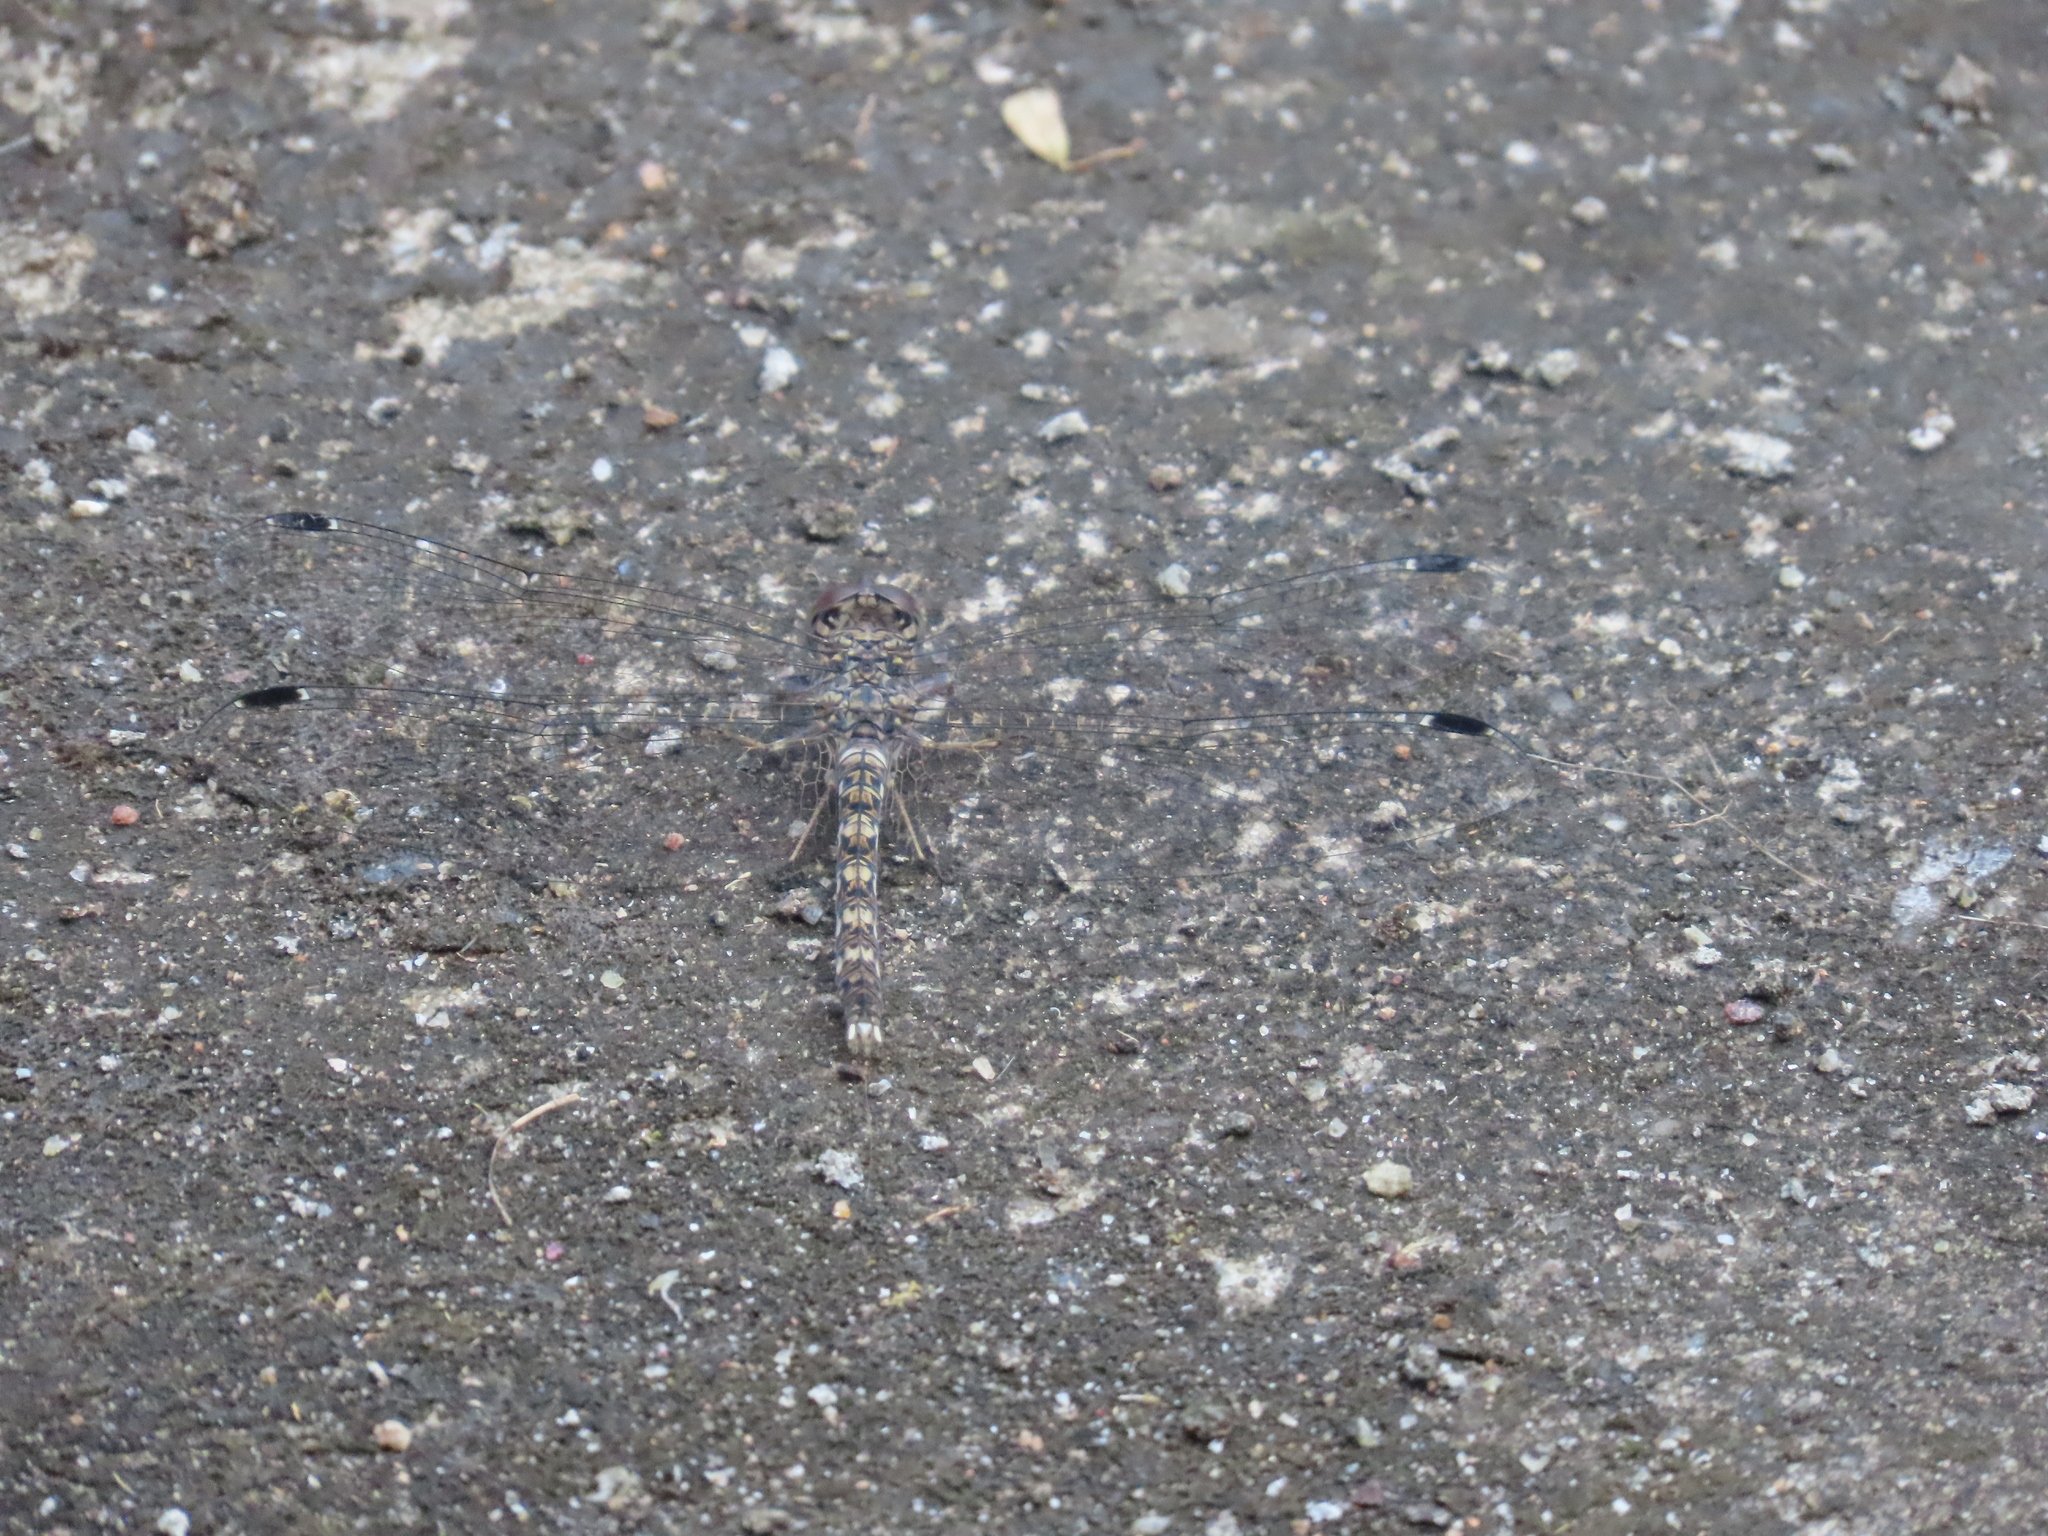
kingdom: Animalia
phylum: Arthropoda
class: Insecta
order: Odonata
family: Libellulidae
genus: Bradinopyga
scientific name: Bradinopyga geminata
